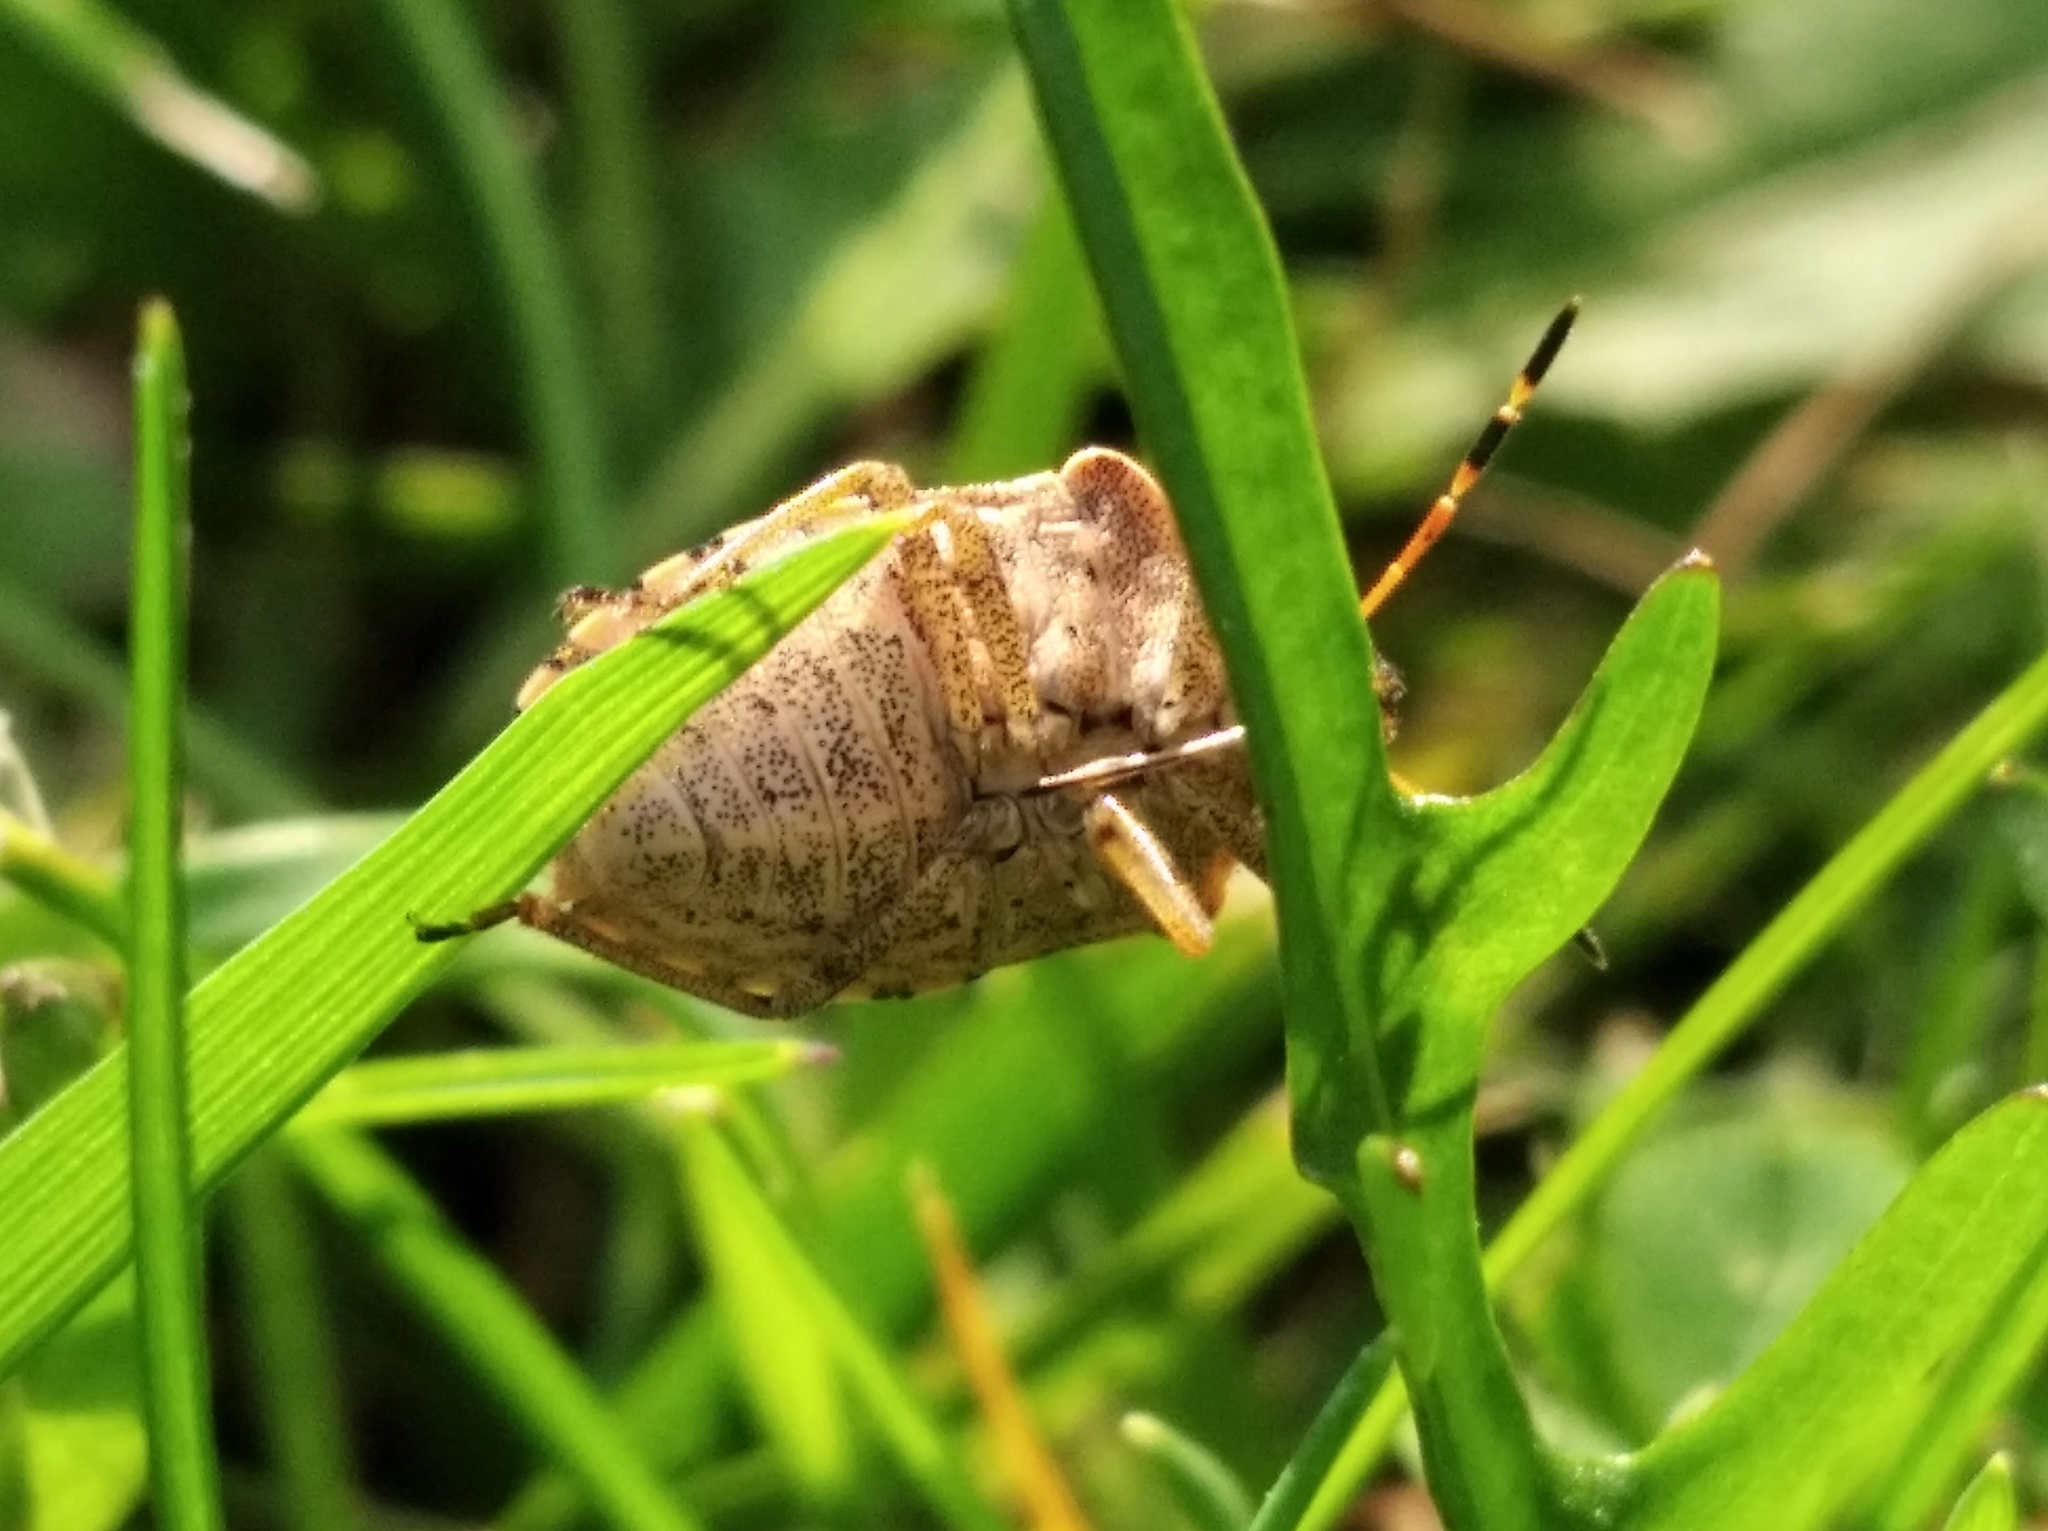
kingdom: Animalia
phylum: Arthropoda
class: Insecta
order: Hemiptera
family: Pentatomidae
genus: Holcostethus
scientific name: Holcostethus strictus
